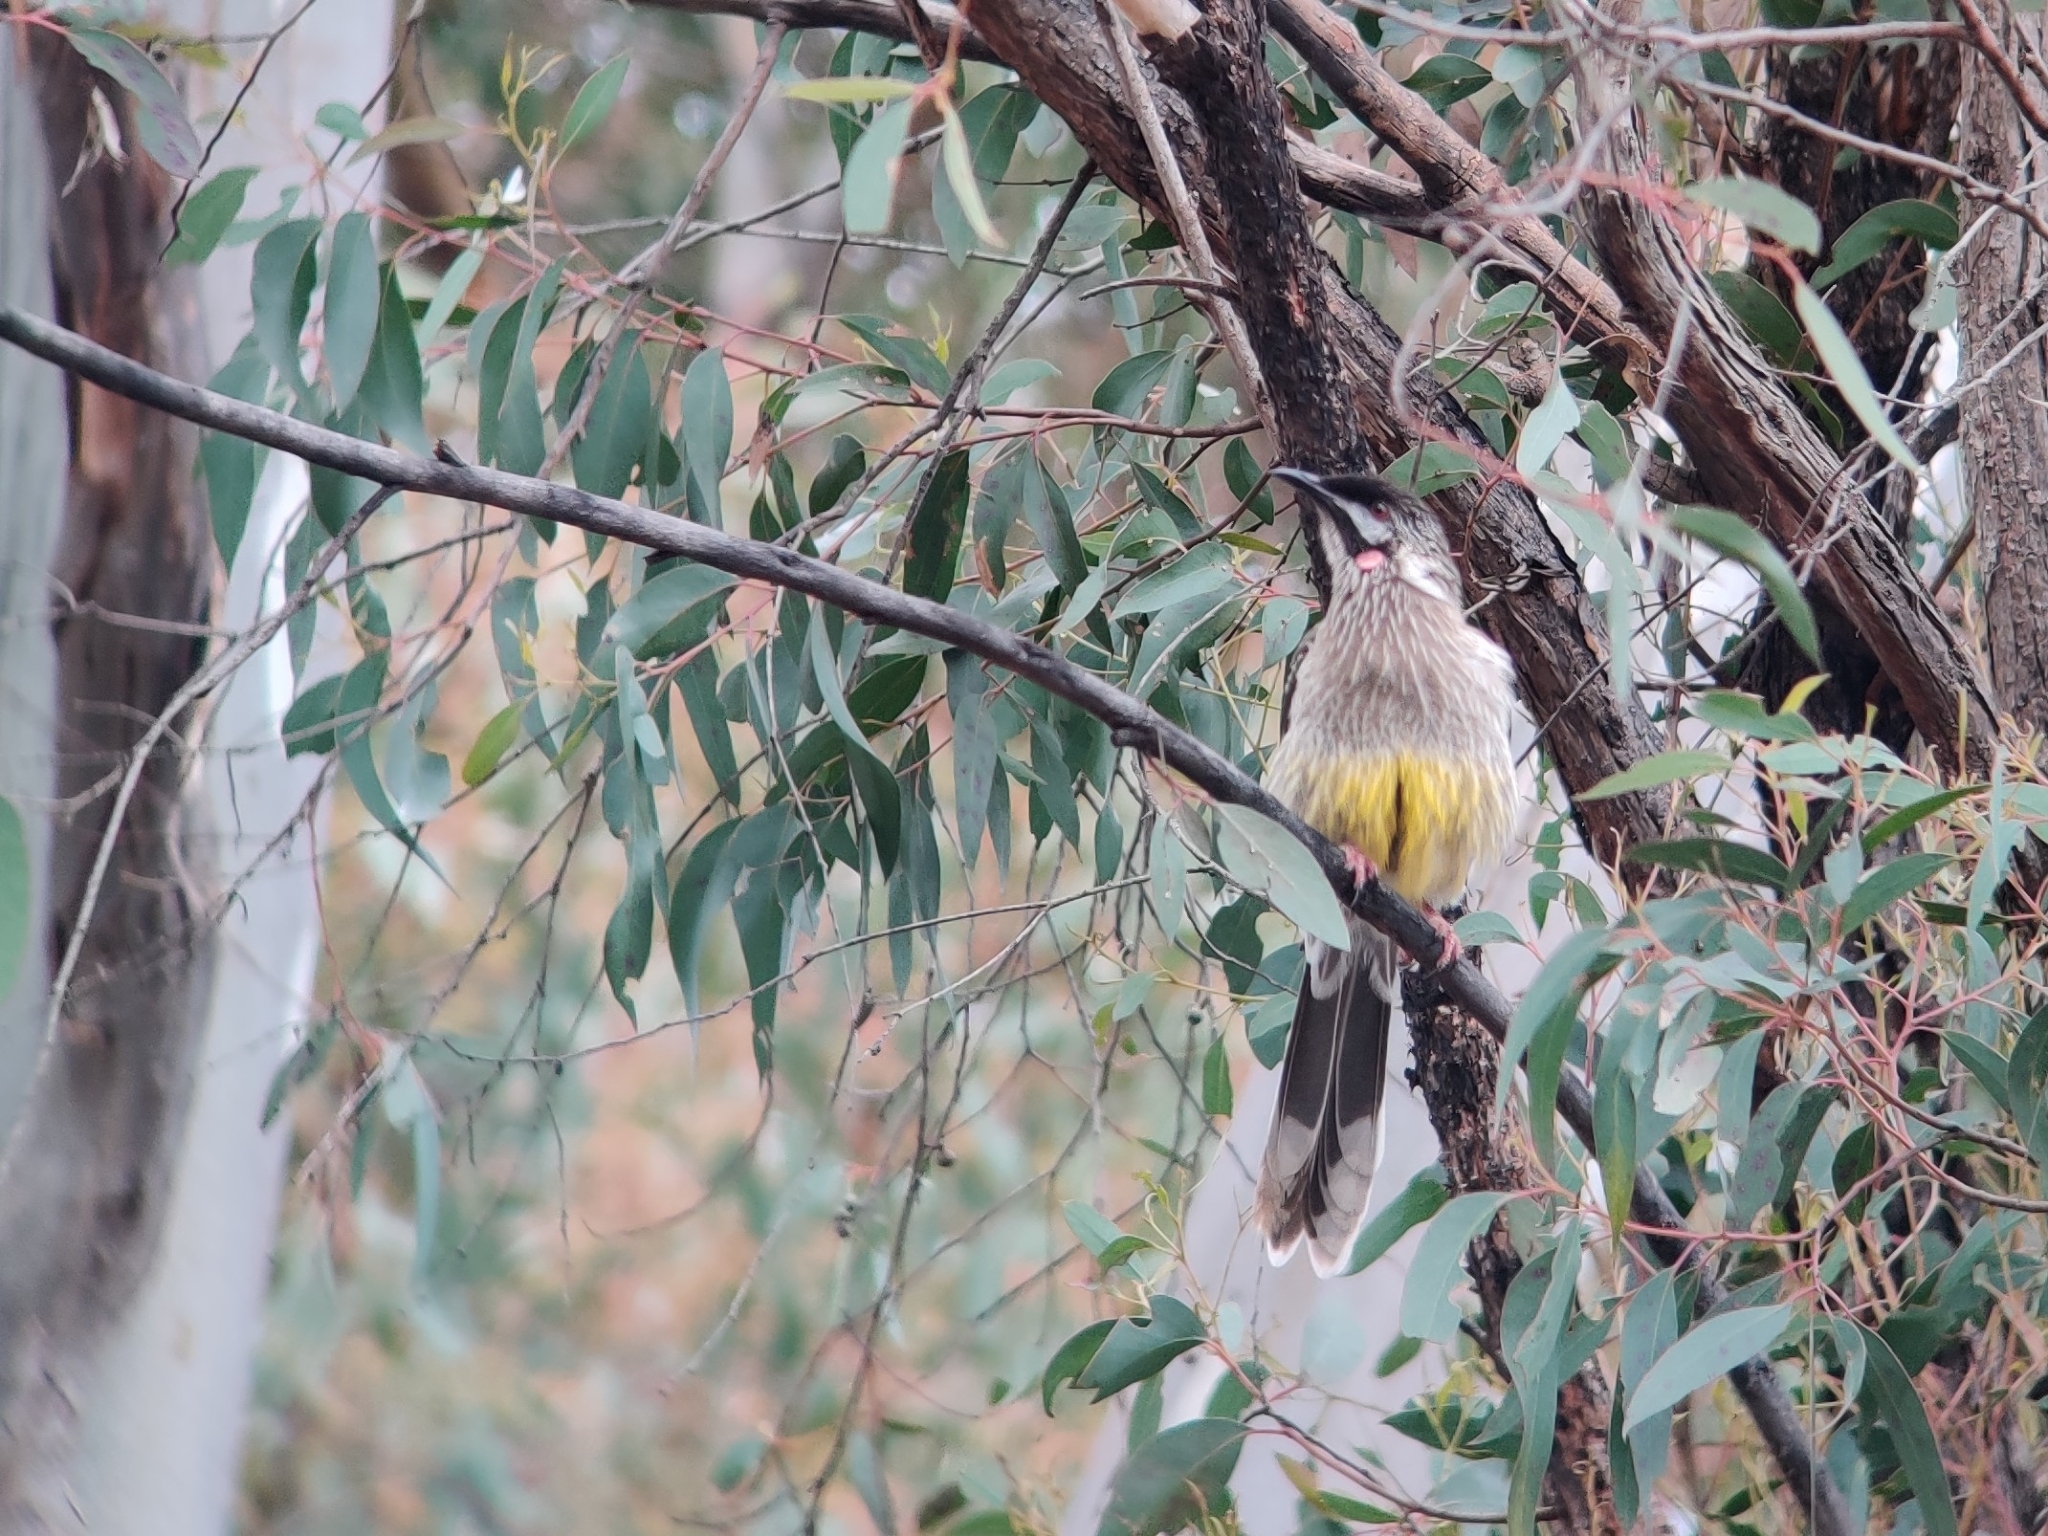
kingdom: Animalia
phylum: Chordata
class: Aves
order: Passeriformes
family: Meliphagidae
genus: Anthochaera
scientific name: Anthochaera carunculata
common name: Red wattlebird
